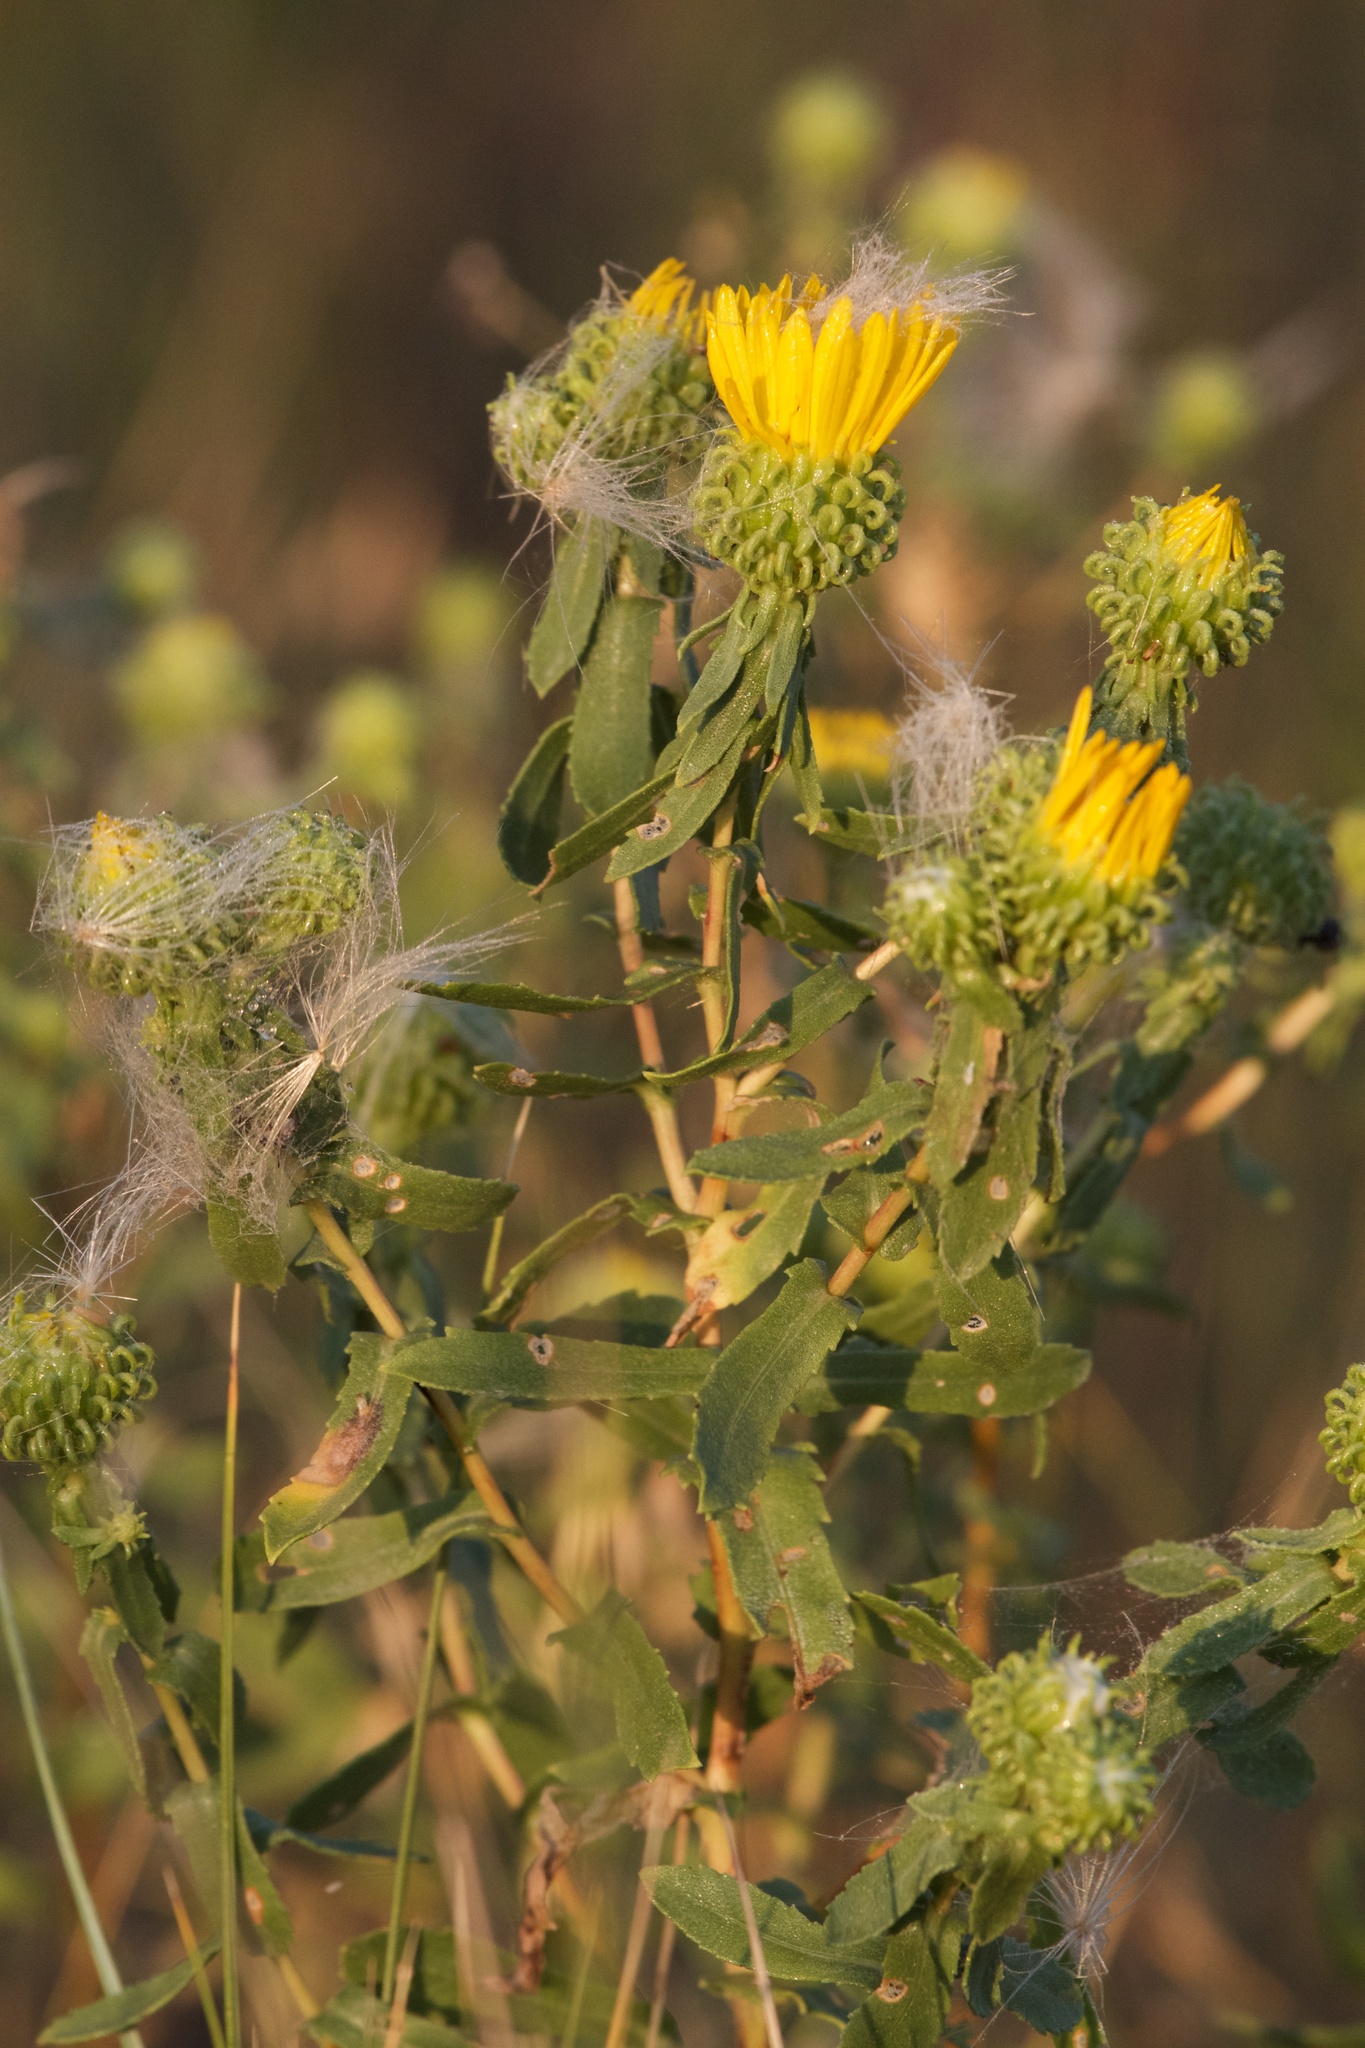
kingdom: Plantae
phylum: Tracheophyta
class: Magnoliopsida
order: Asterales
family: Asteraceae
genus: Grindelia
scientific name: Grindelia squarrosa
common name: Curly-cup gumweed
